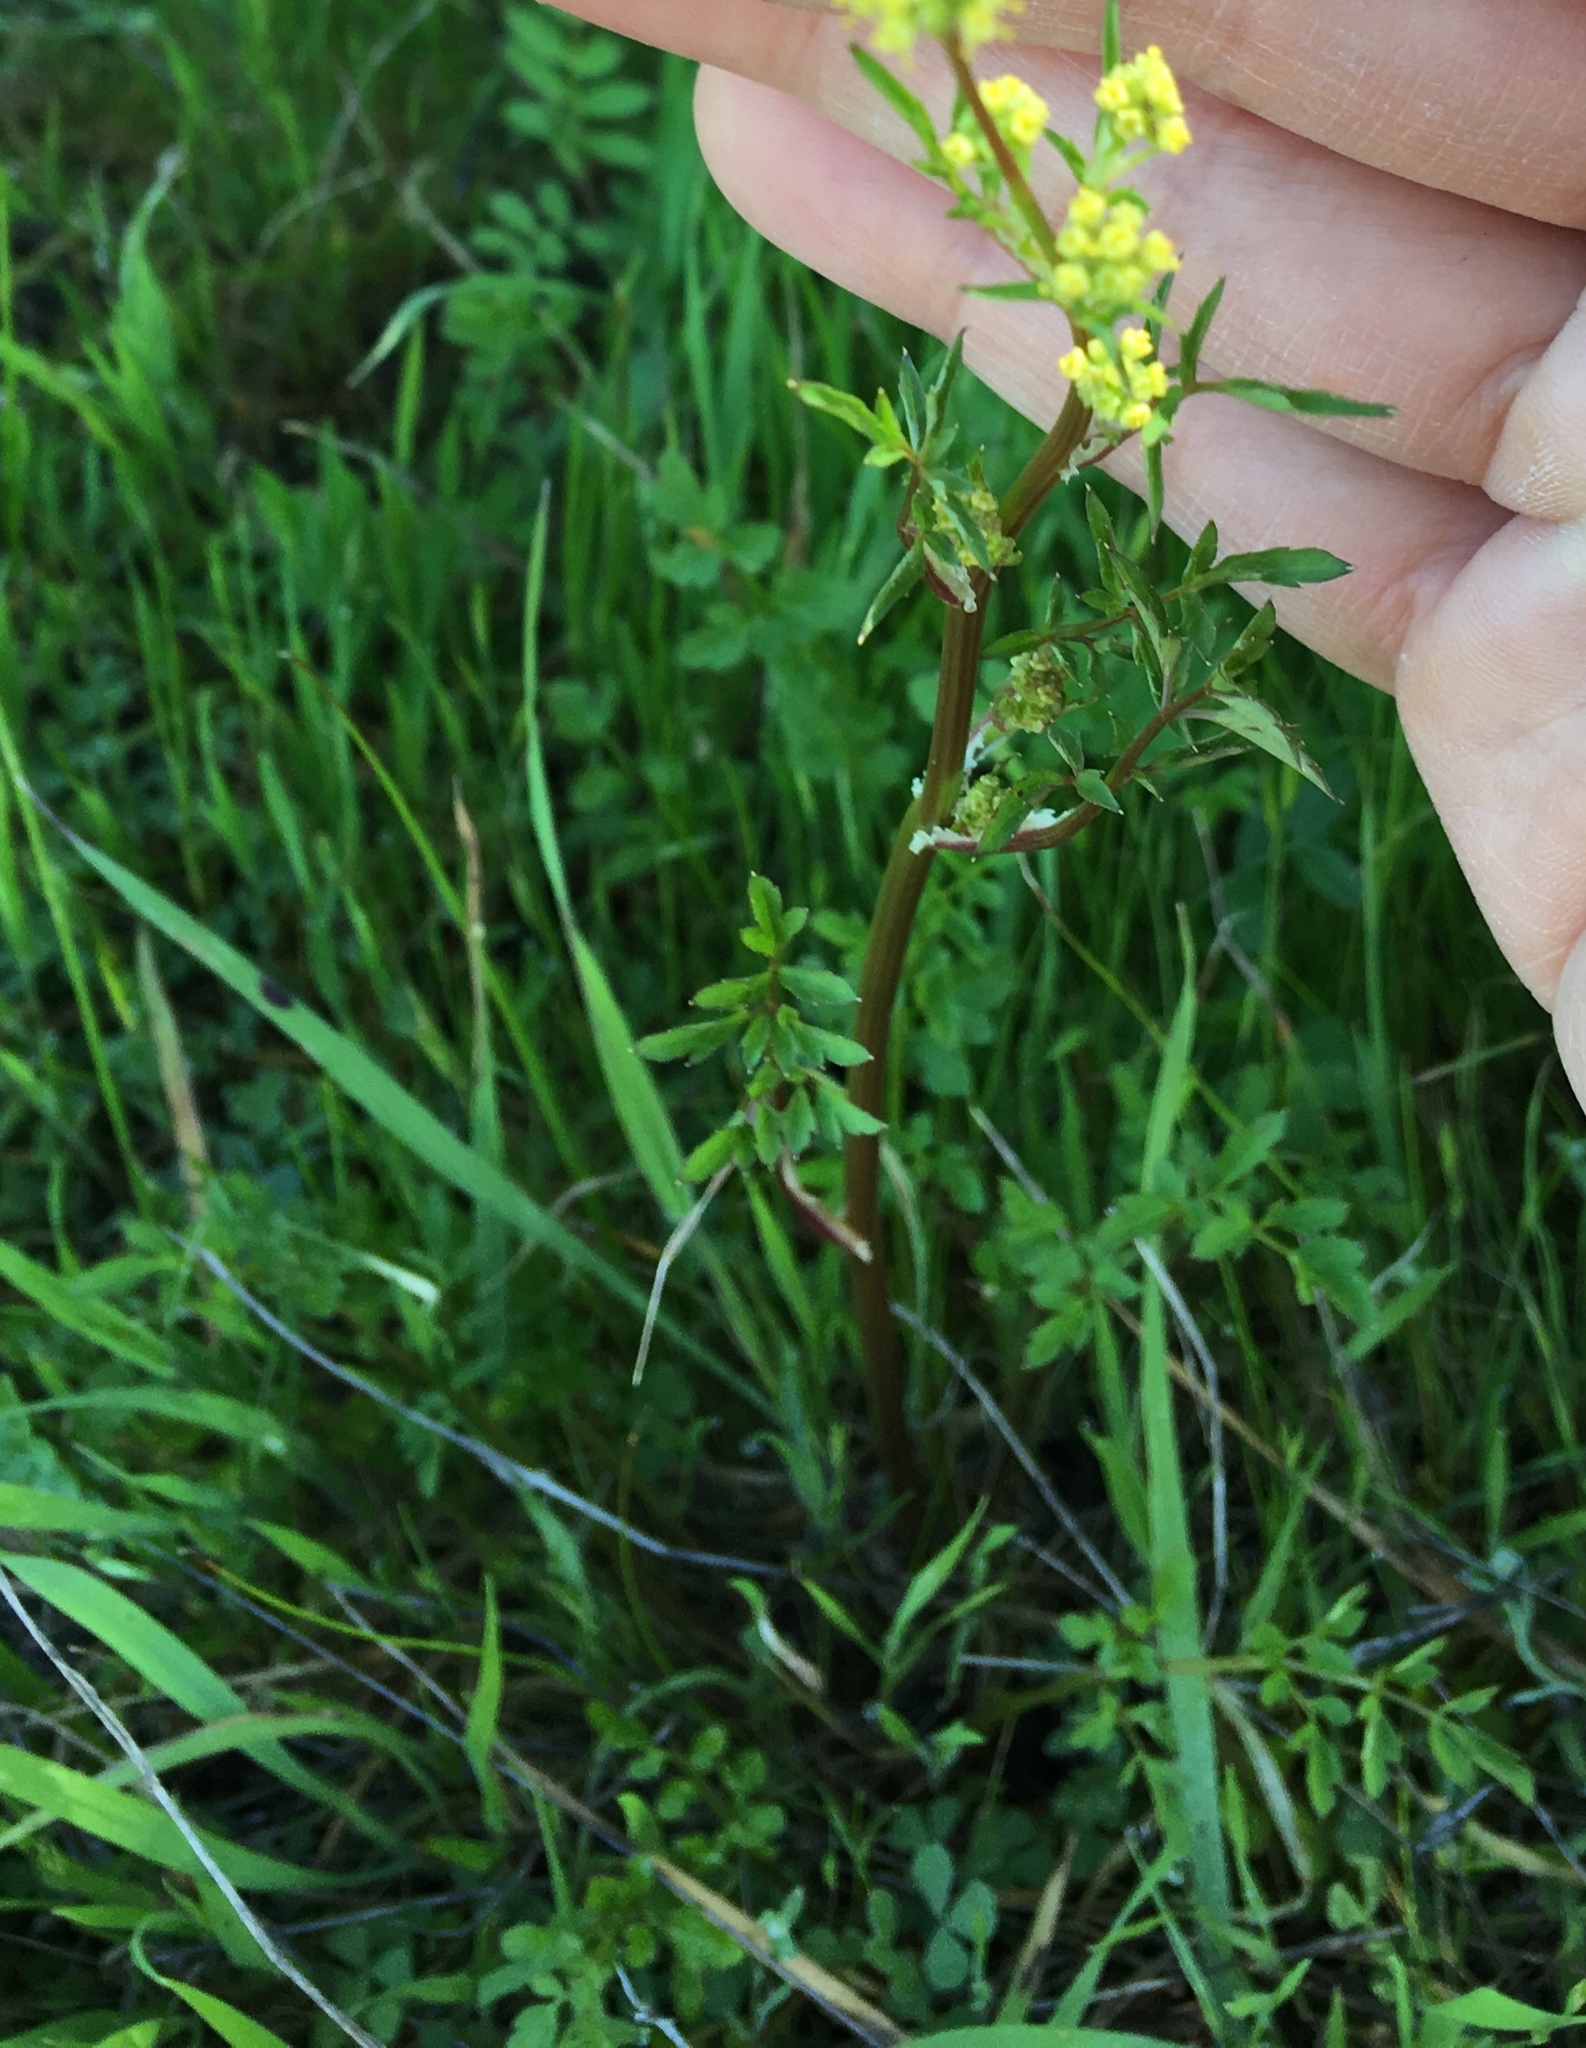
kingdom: Plantae
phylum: Tracheophyta
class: Magnoliopsida
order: Apiales
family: Apiaceae
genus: Sanicula
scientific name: Sanicula bipinnata
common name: Poison sanicle
